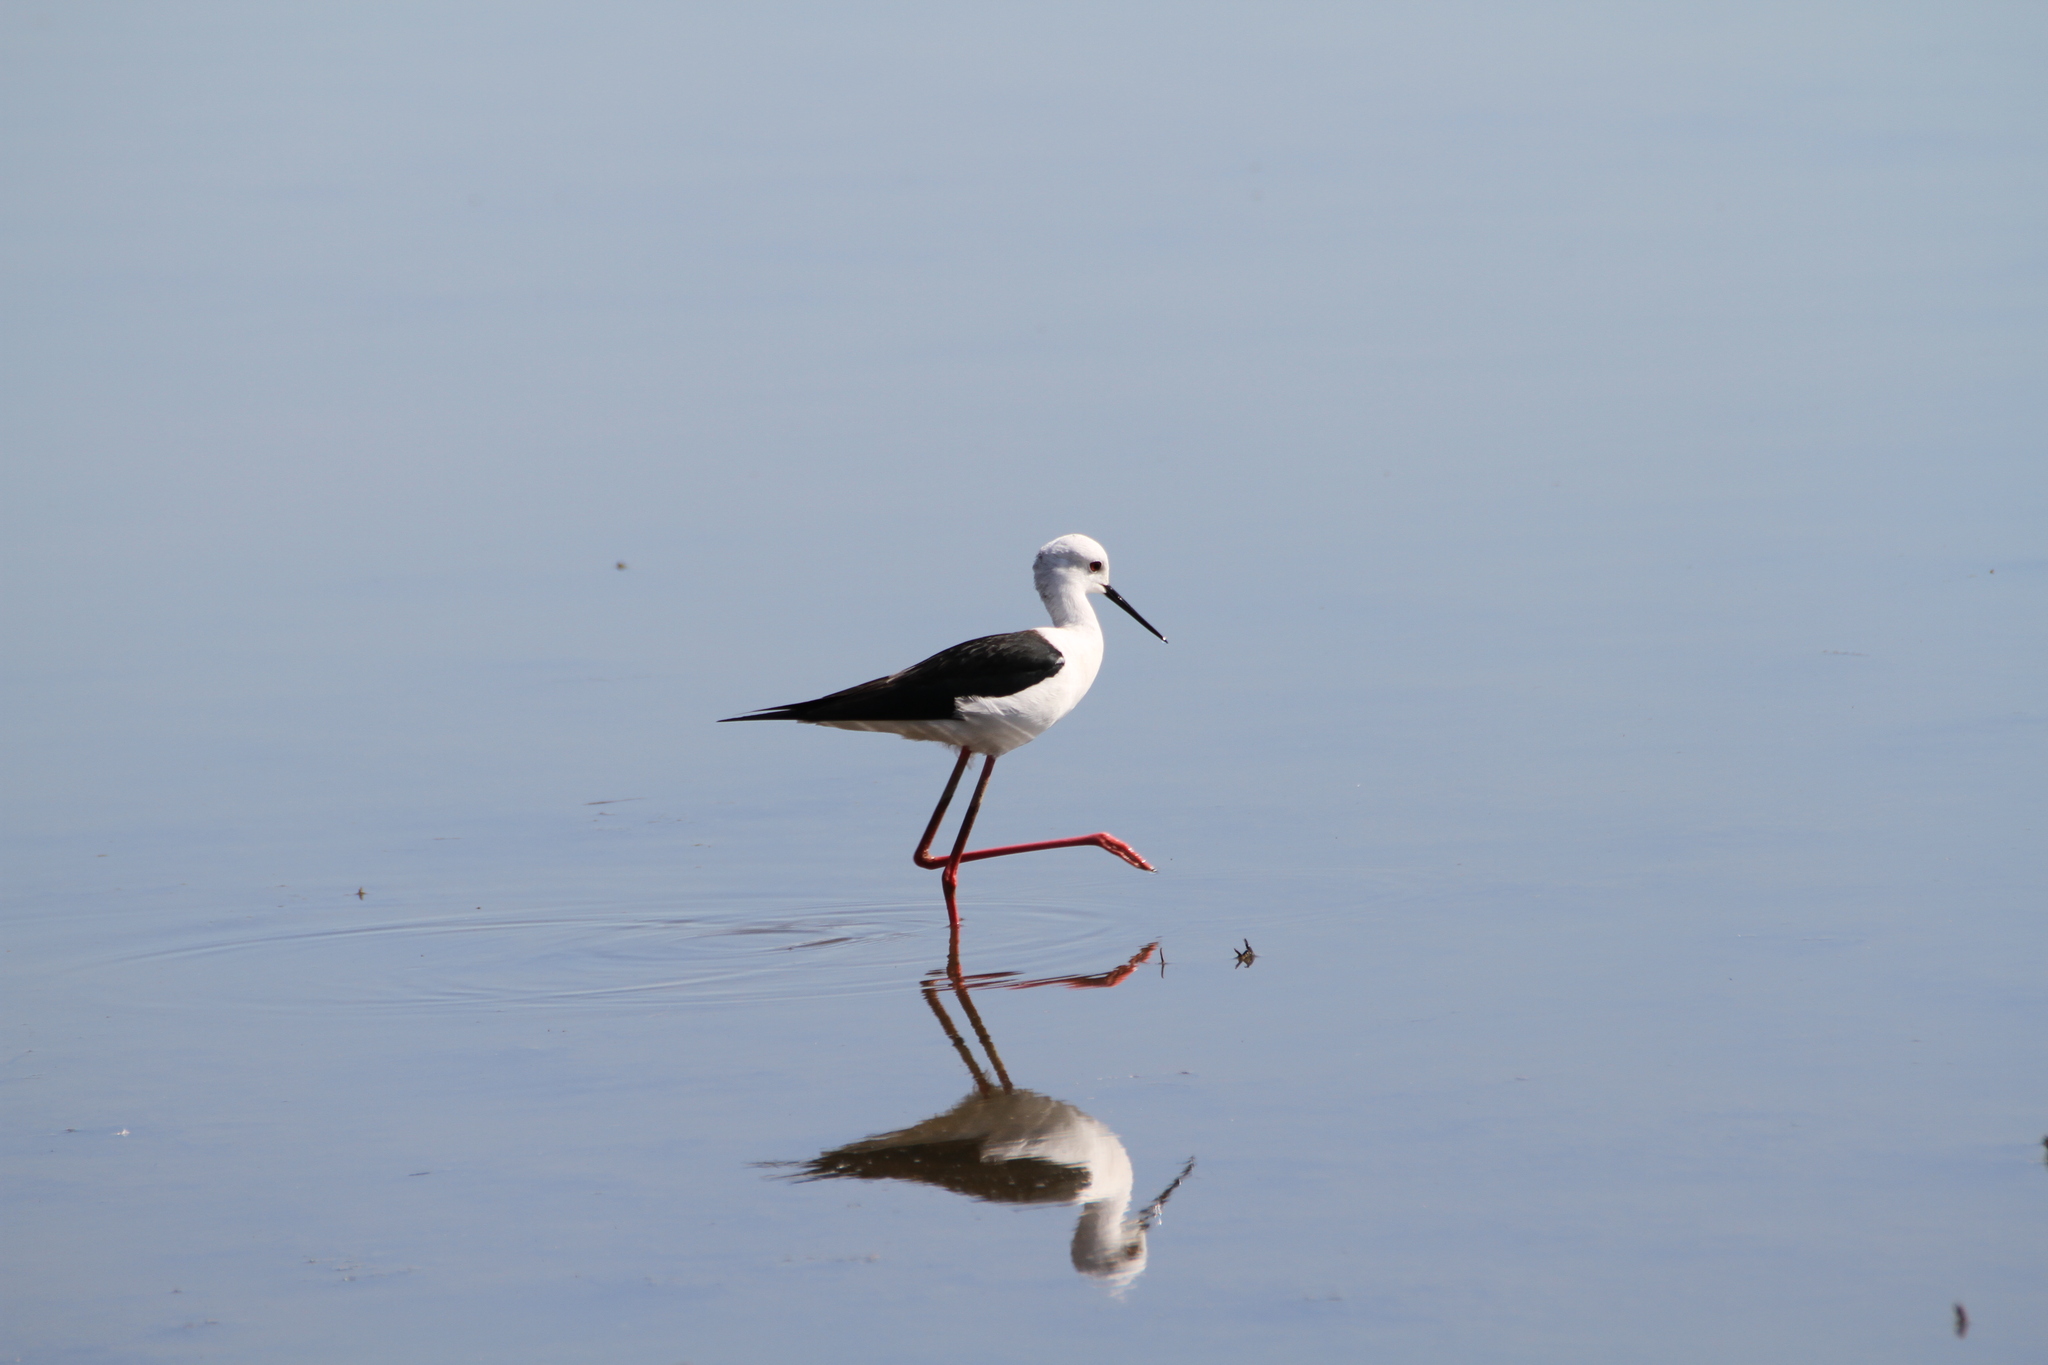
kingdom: Animalia
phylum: Chordata
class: Aves
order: Charadriiformes
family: Recurvirostridae
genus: Himantopus
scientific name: Himantopus himantopus
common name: Black-winged stilt
